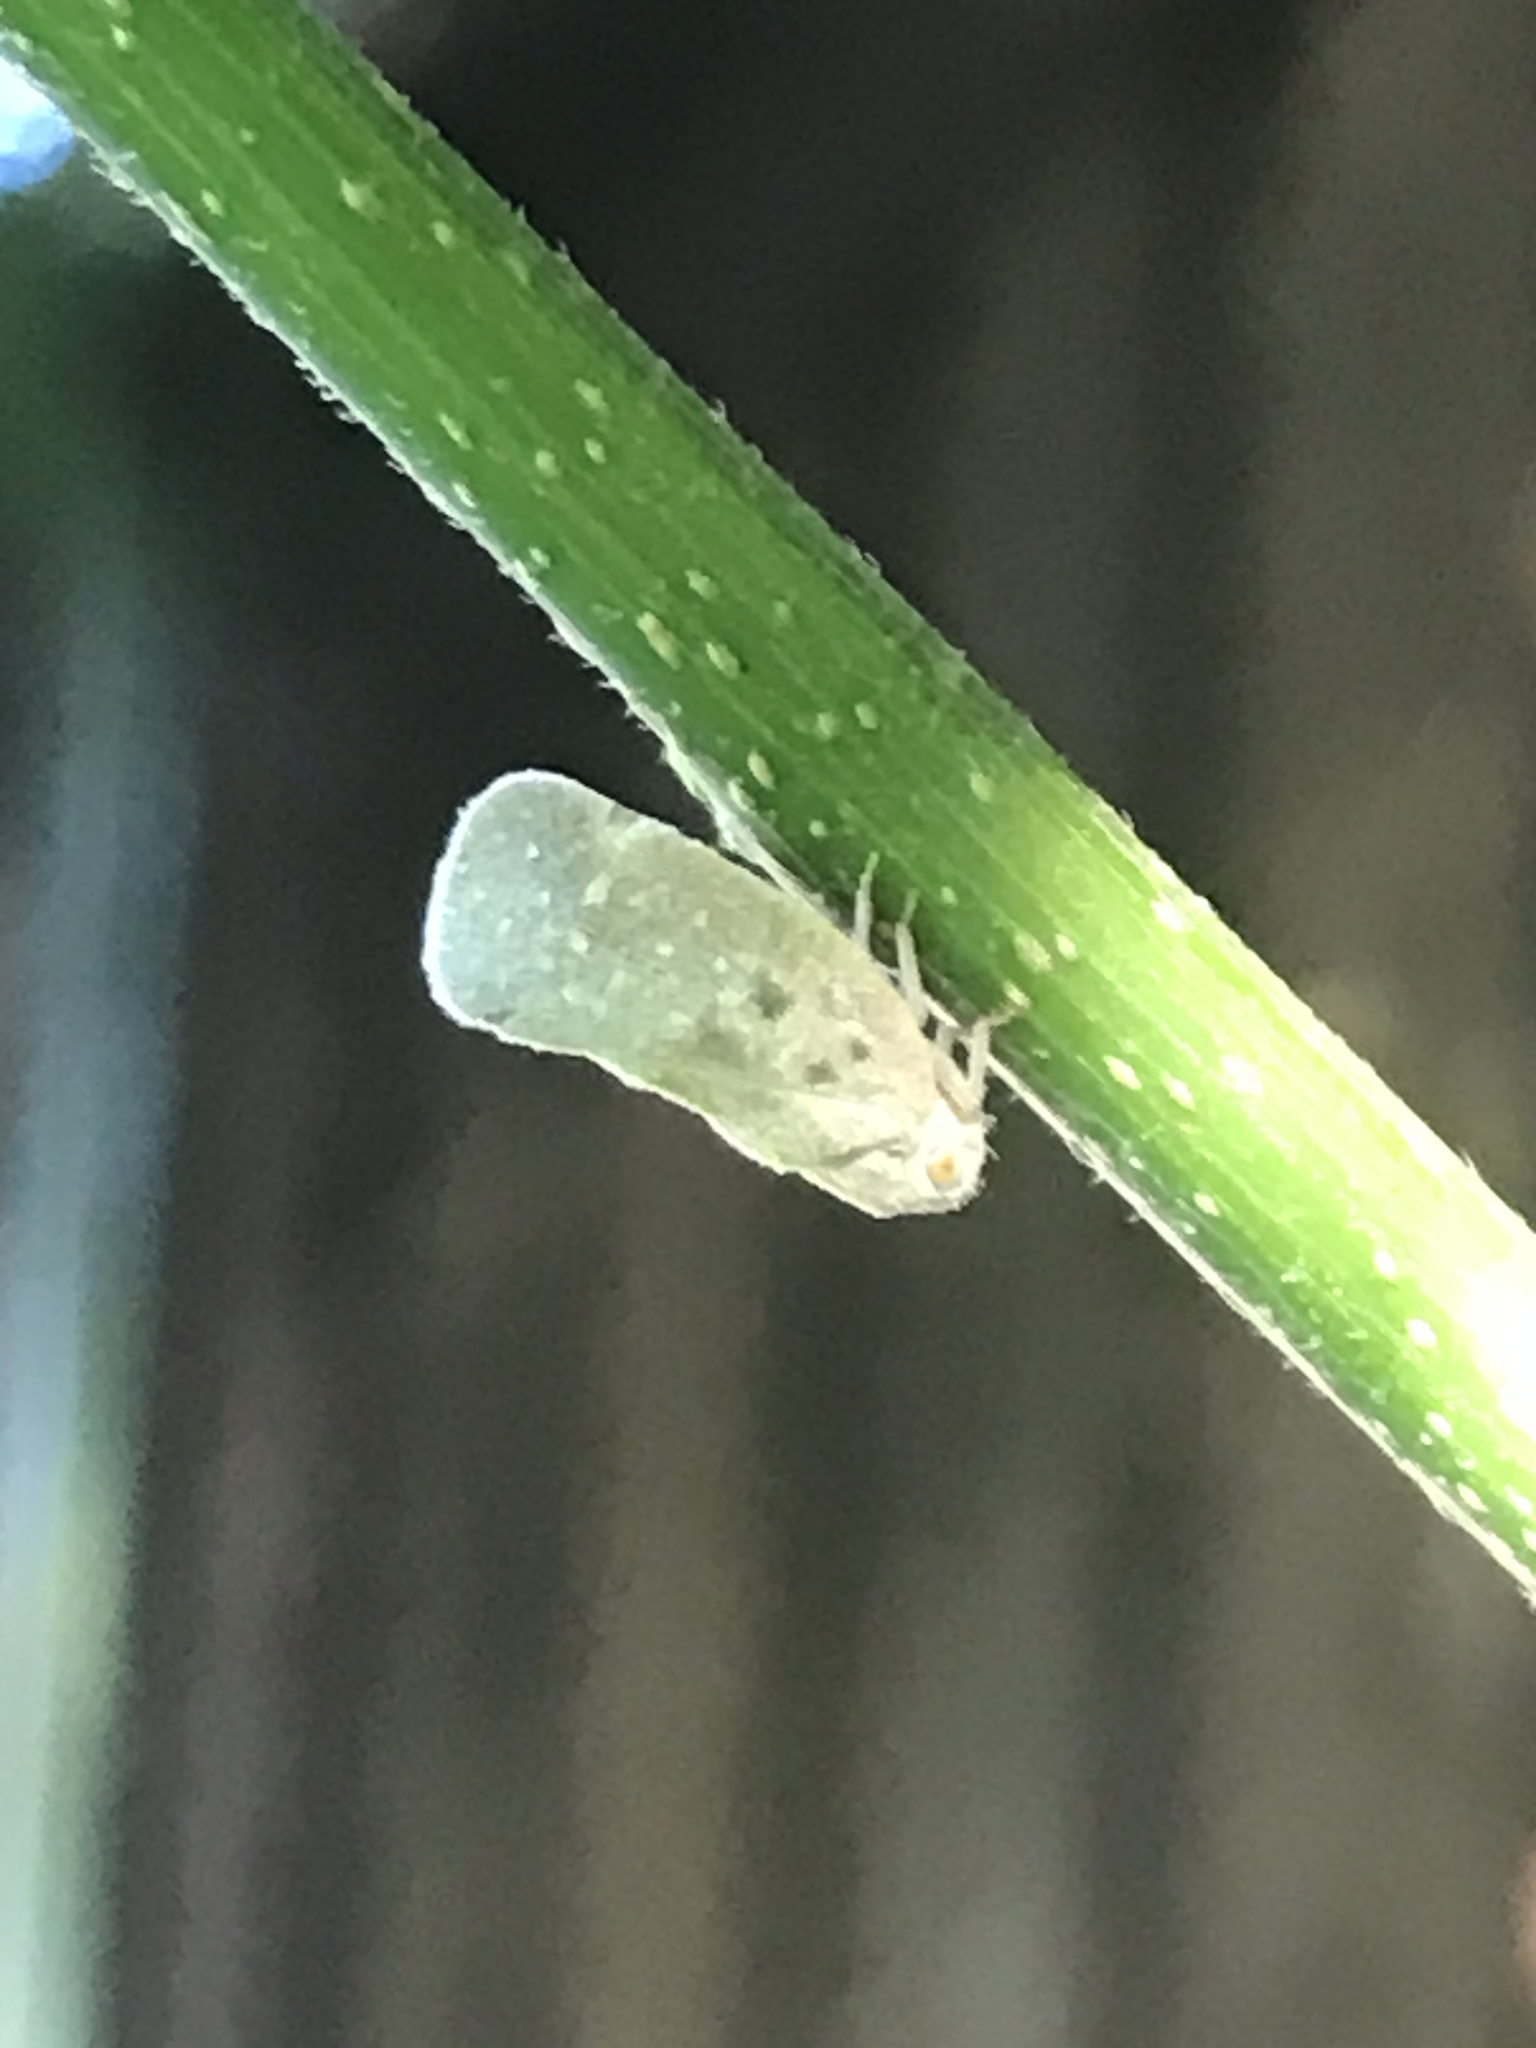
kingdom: Animalia
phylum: Arthropoda
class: Insecta
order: Hemiptera
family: Flatidae
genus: Metcalfa
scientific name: Metcalfa pruinosa
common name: Citrus flatid planthopper
